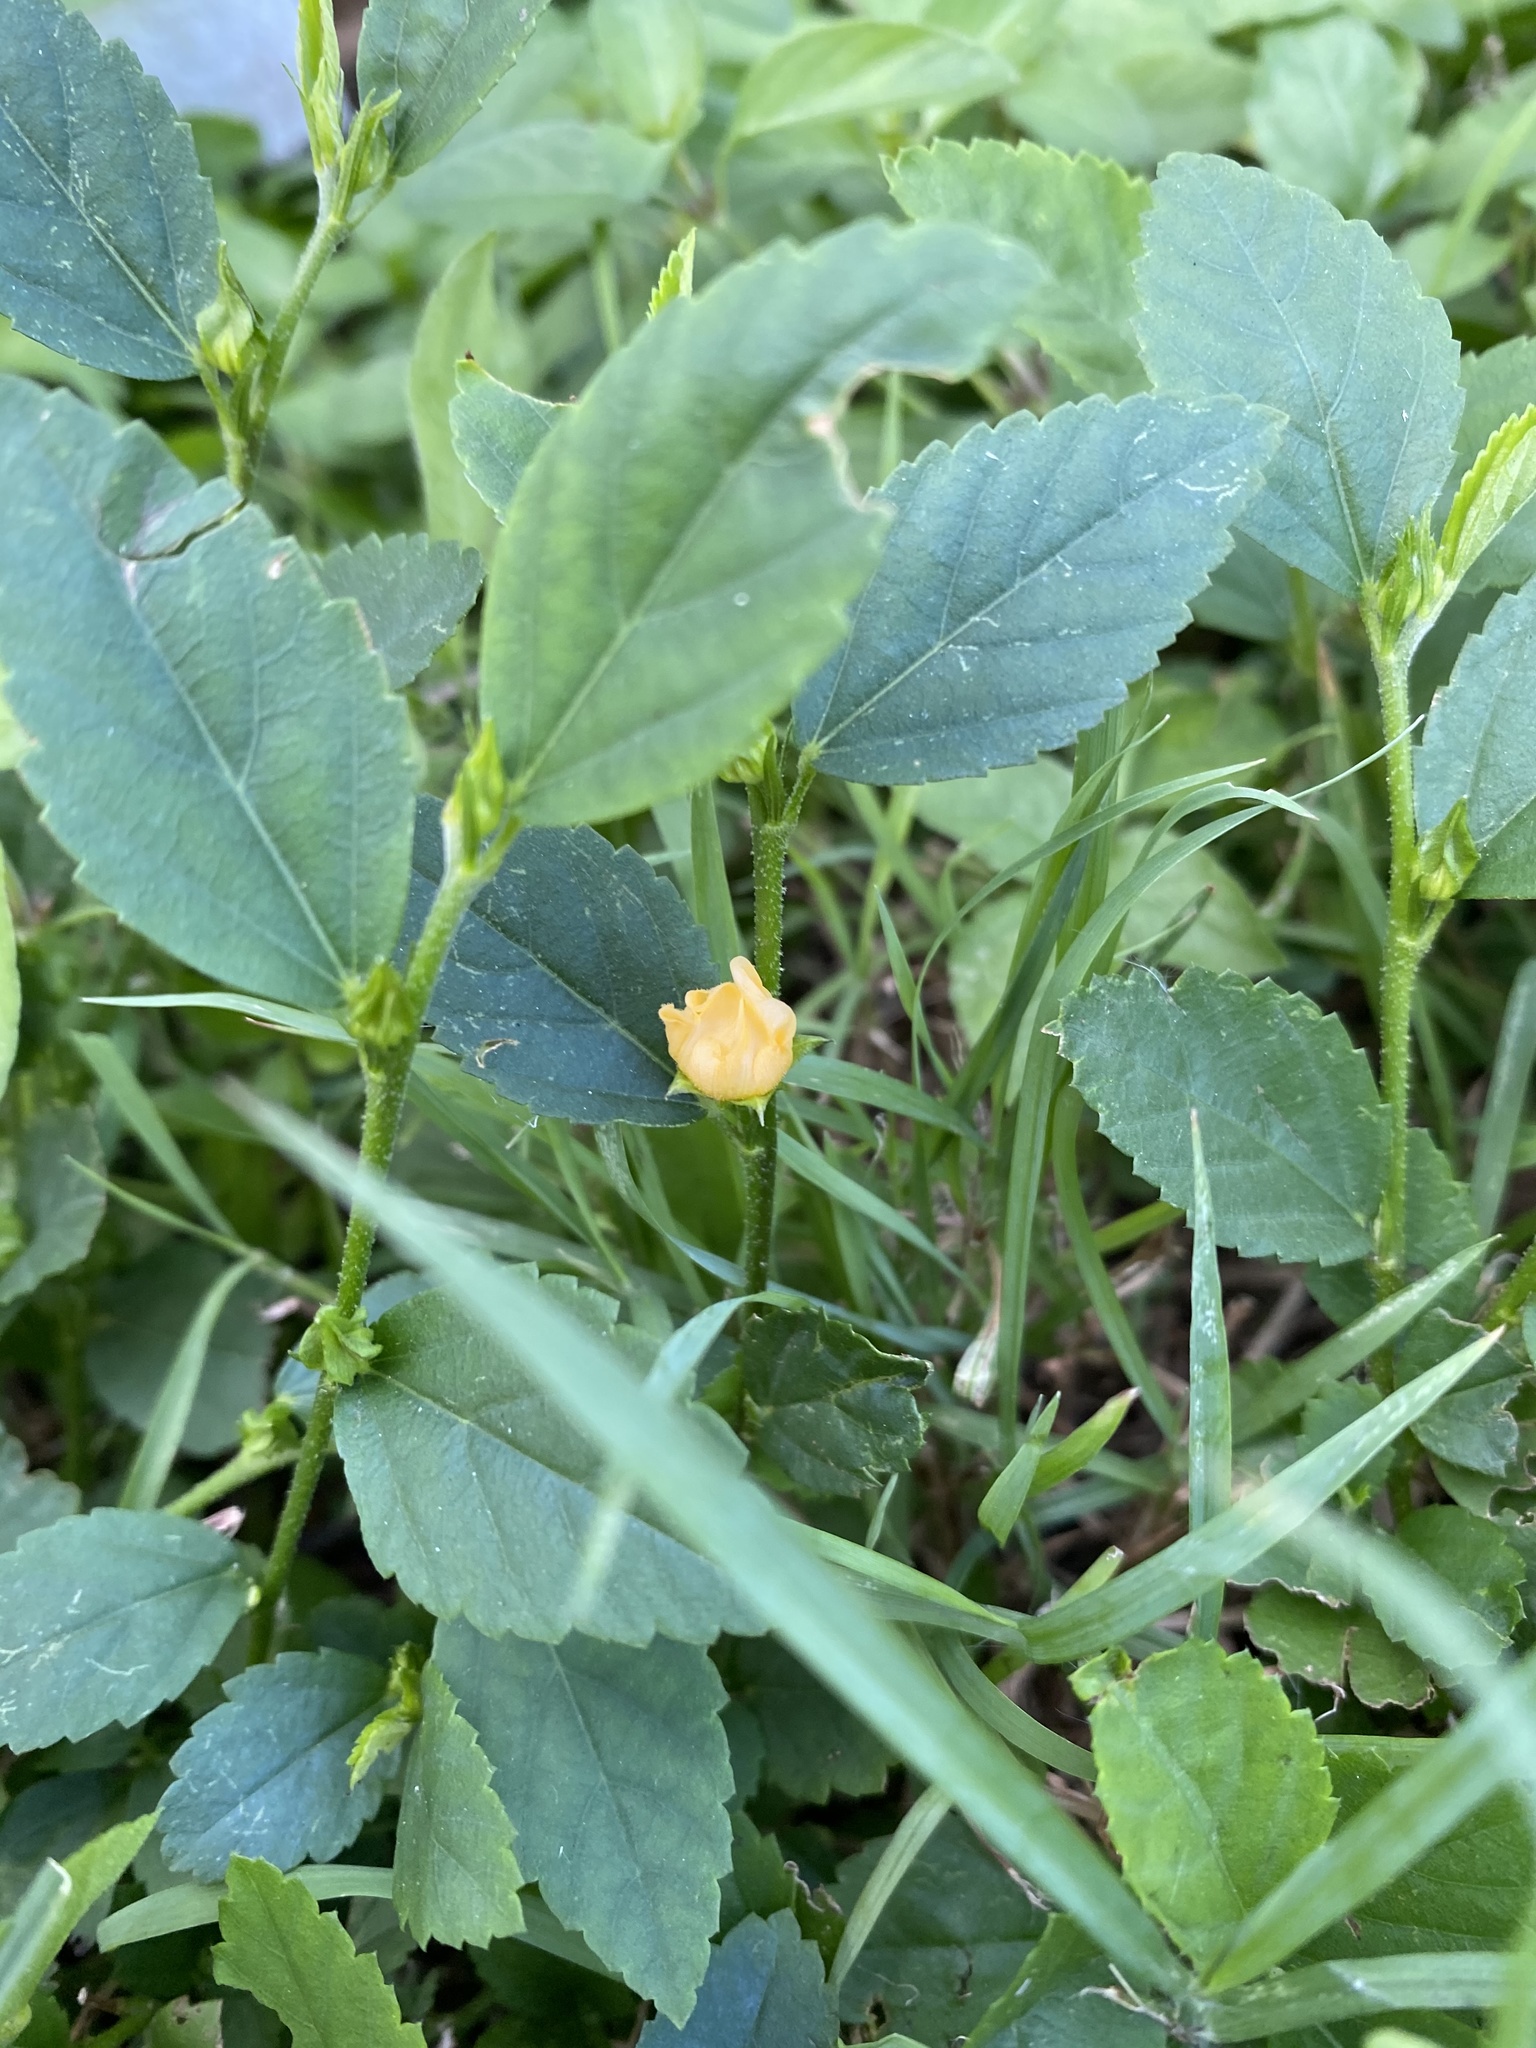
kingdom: Plantae
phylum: Tracheophyta
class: Magnoliopsida
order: Malvales
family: Malvaceae
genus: Sida
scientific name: Sida cordifolia
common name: Ilima
